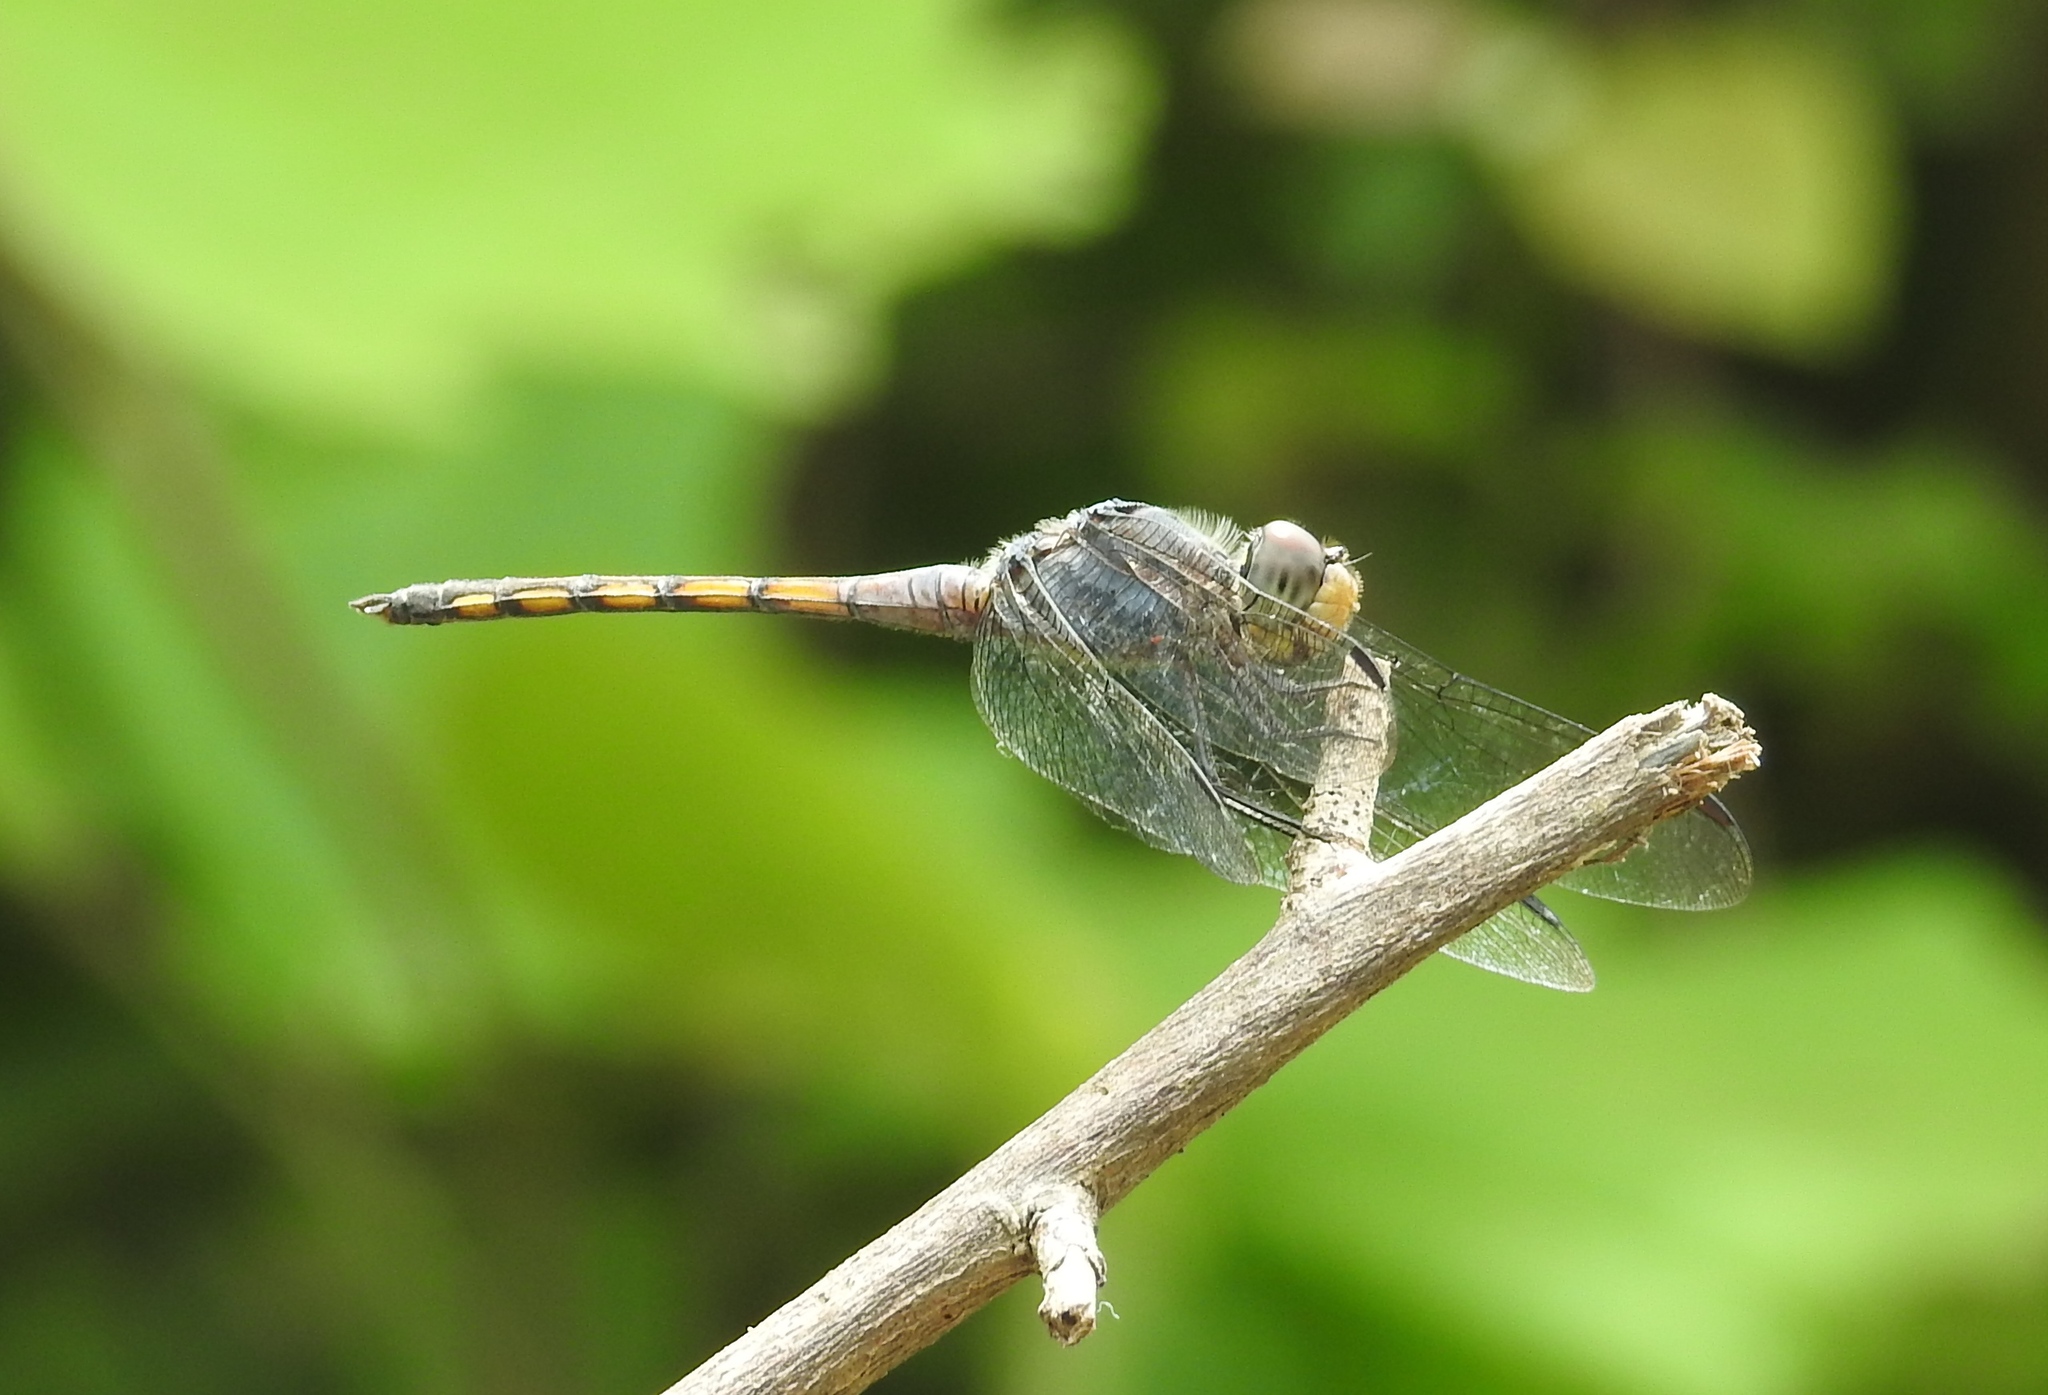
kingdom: Animalia
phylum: Arthropoda
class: Insecta
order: Odonata
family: Libellulidae
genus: Potamarcha
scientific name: Potamarcha congener
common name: Blue chaser
